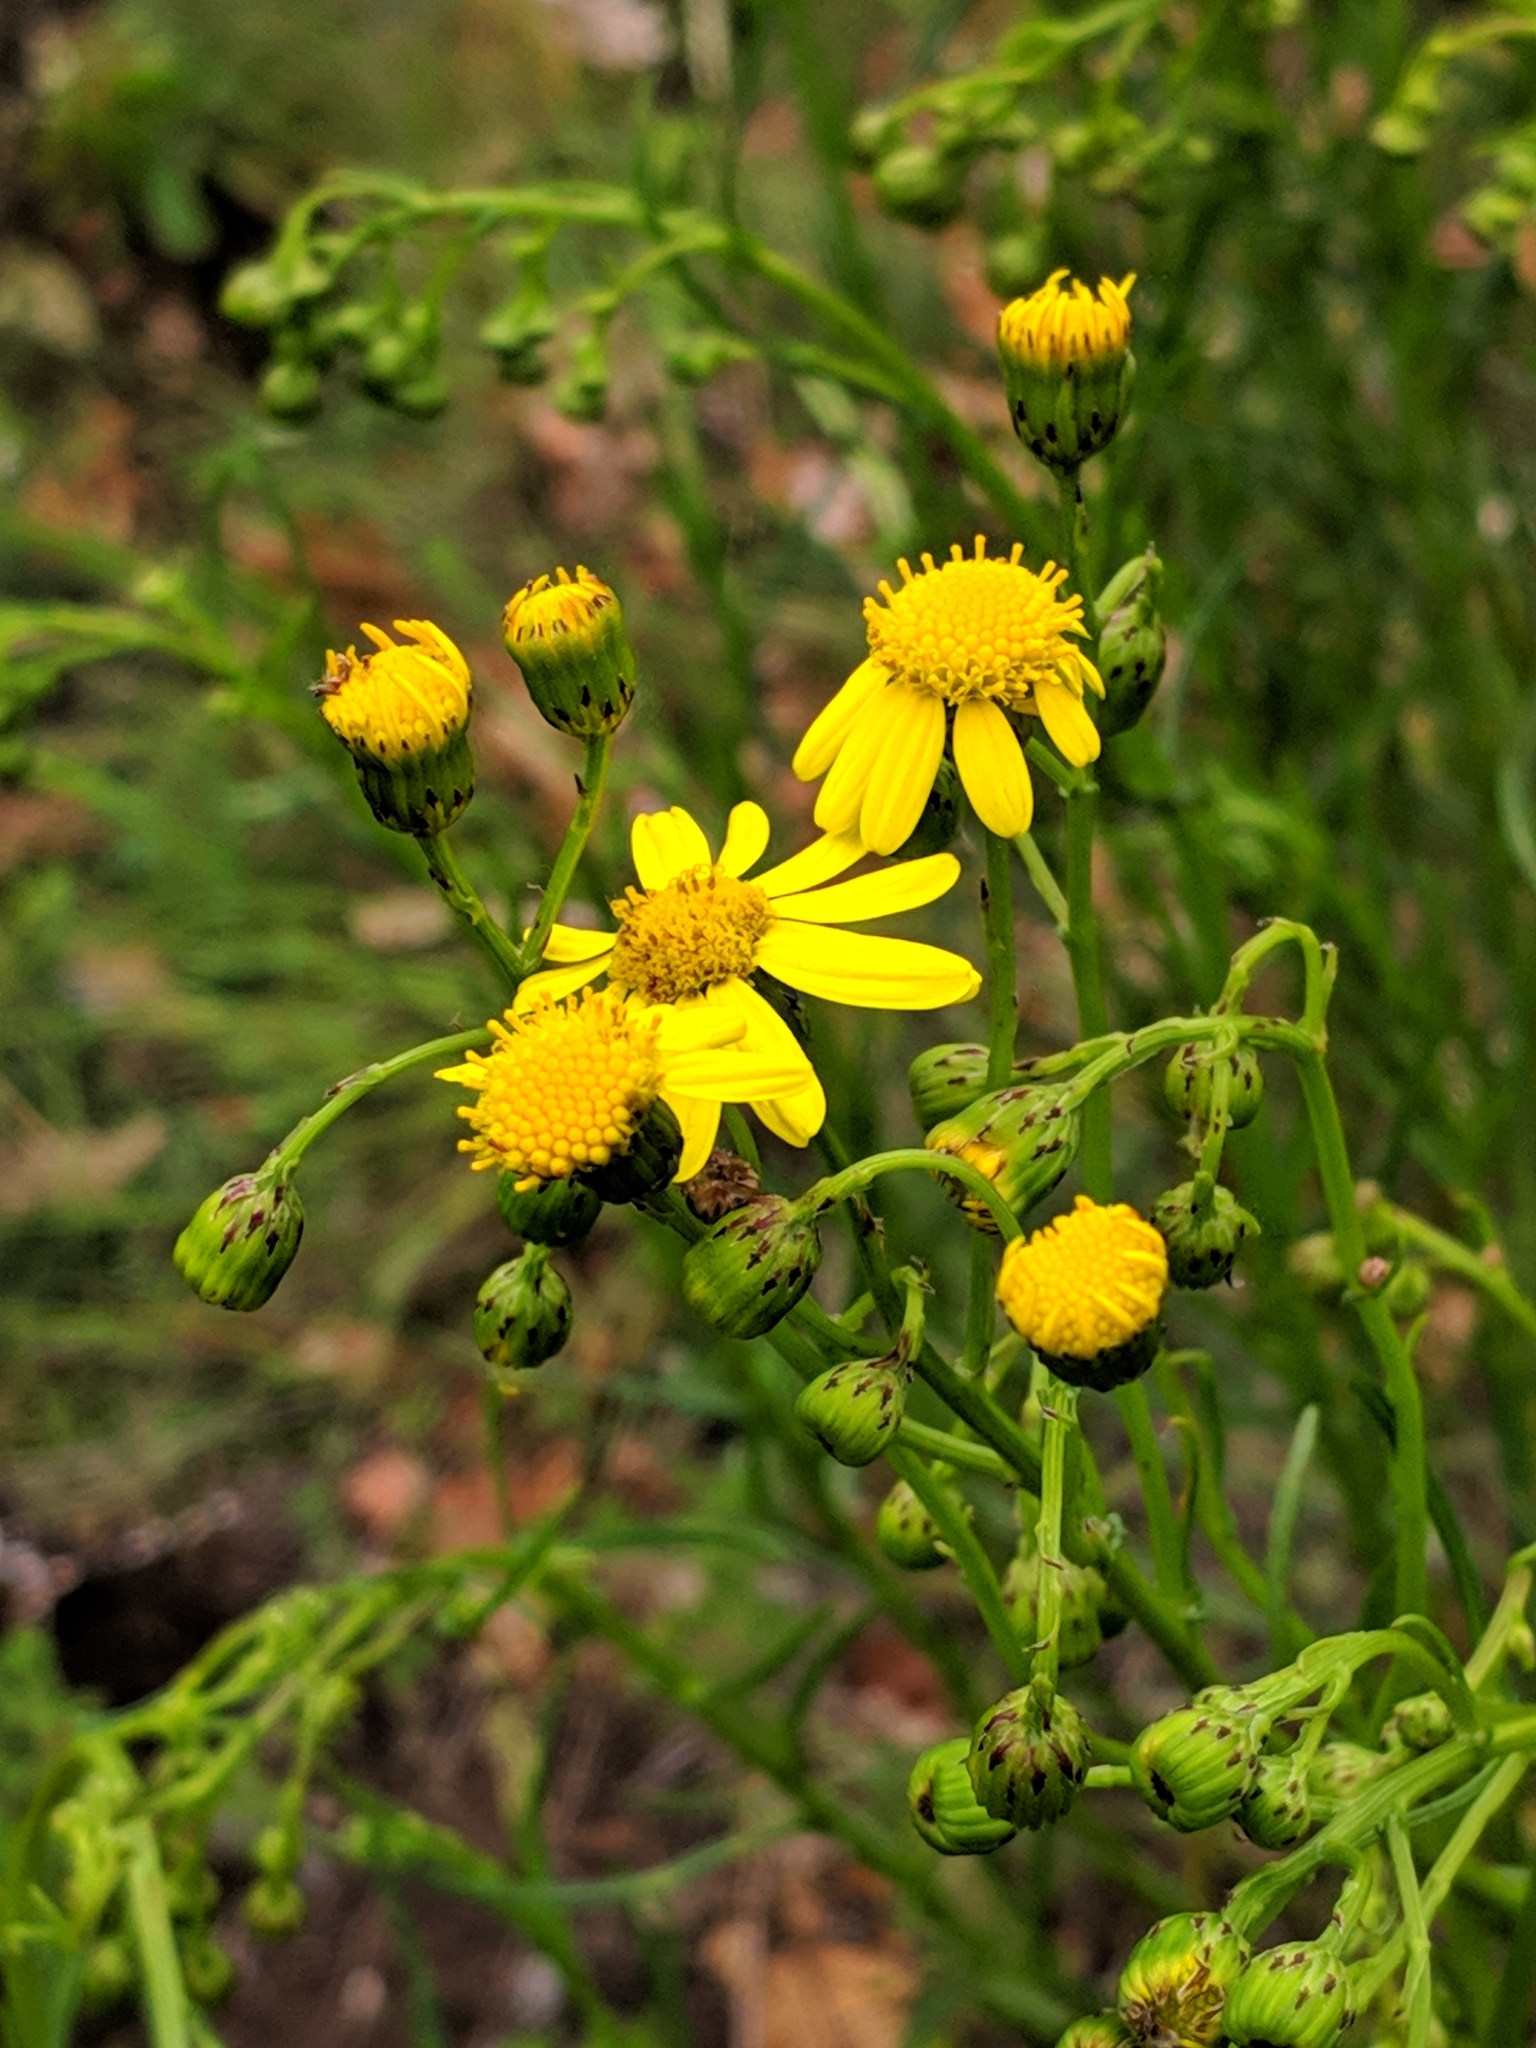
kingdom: Plantae
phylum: Tracheophyta
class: Magnoliopsida
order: Asterales
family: Asteraceae
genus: Senecio
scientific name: Senecio inaequidens
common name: Narrow-leaved ragwort
